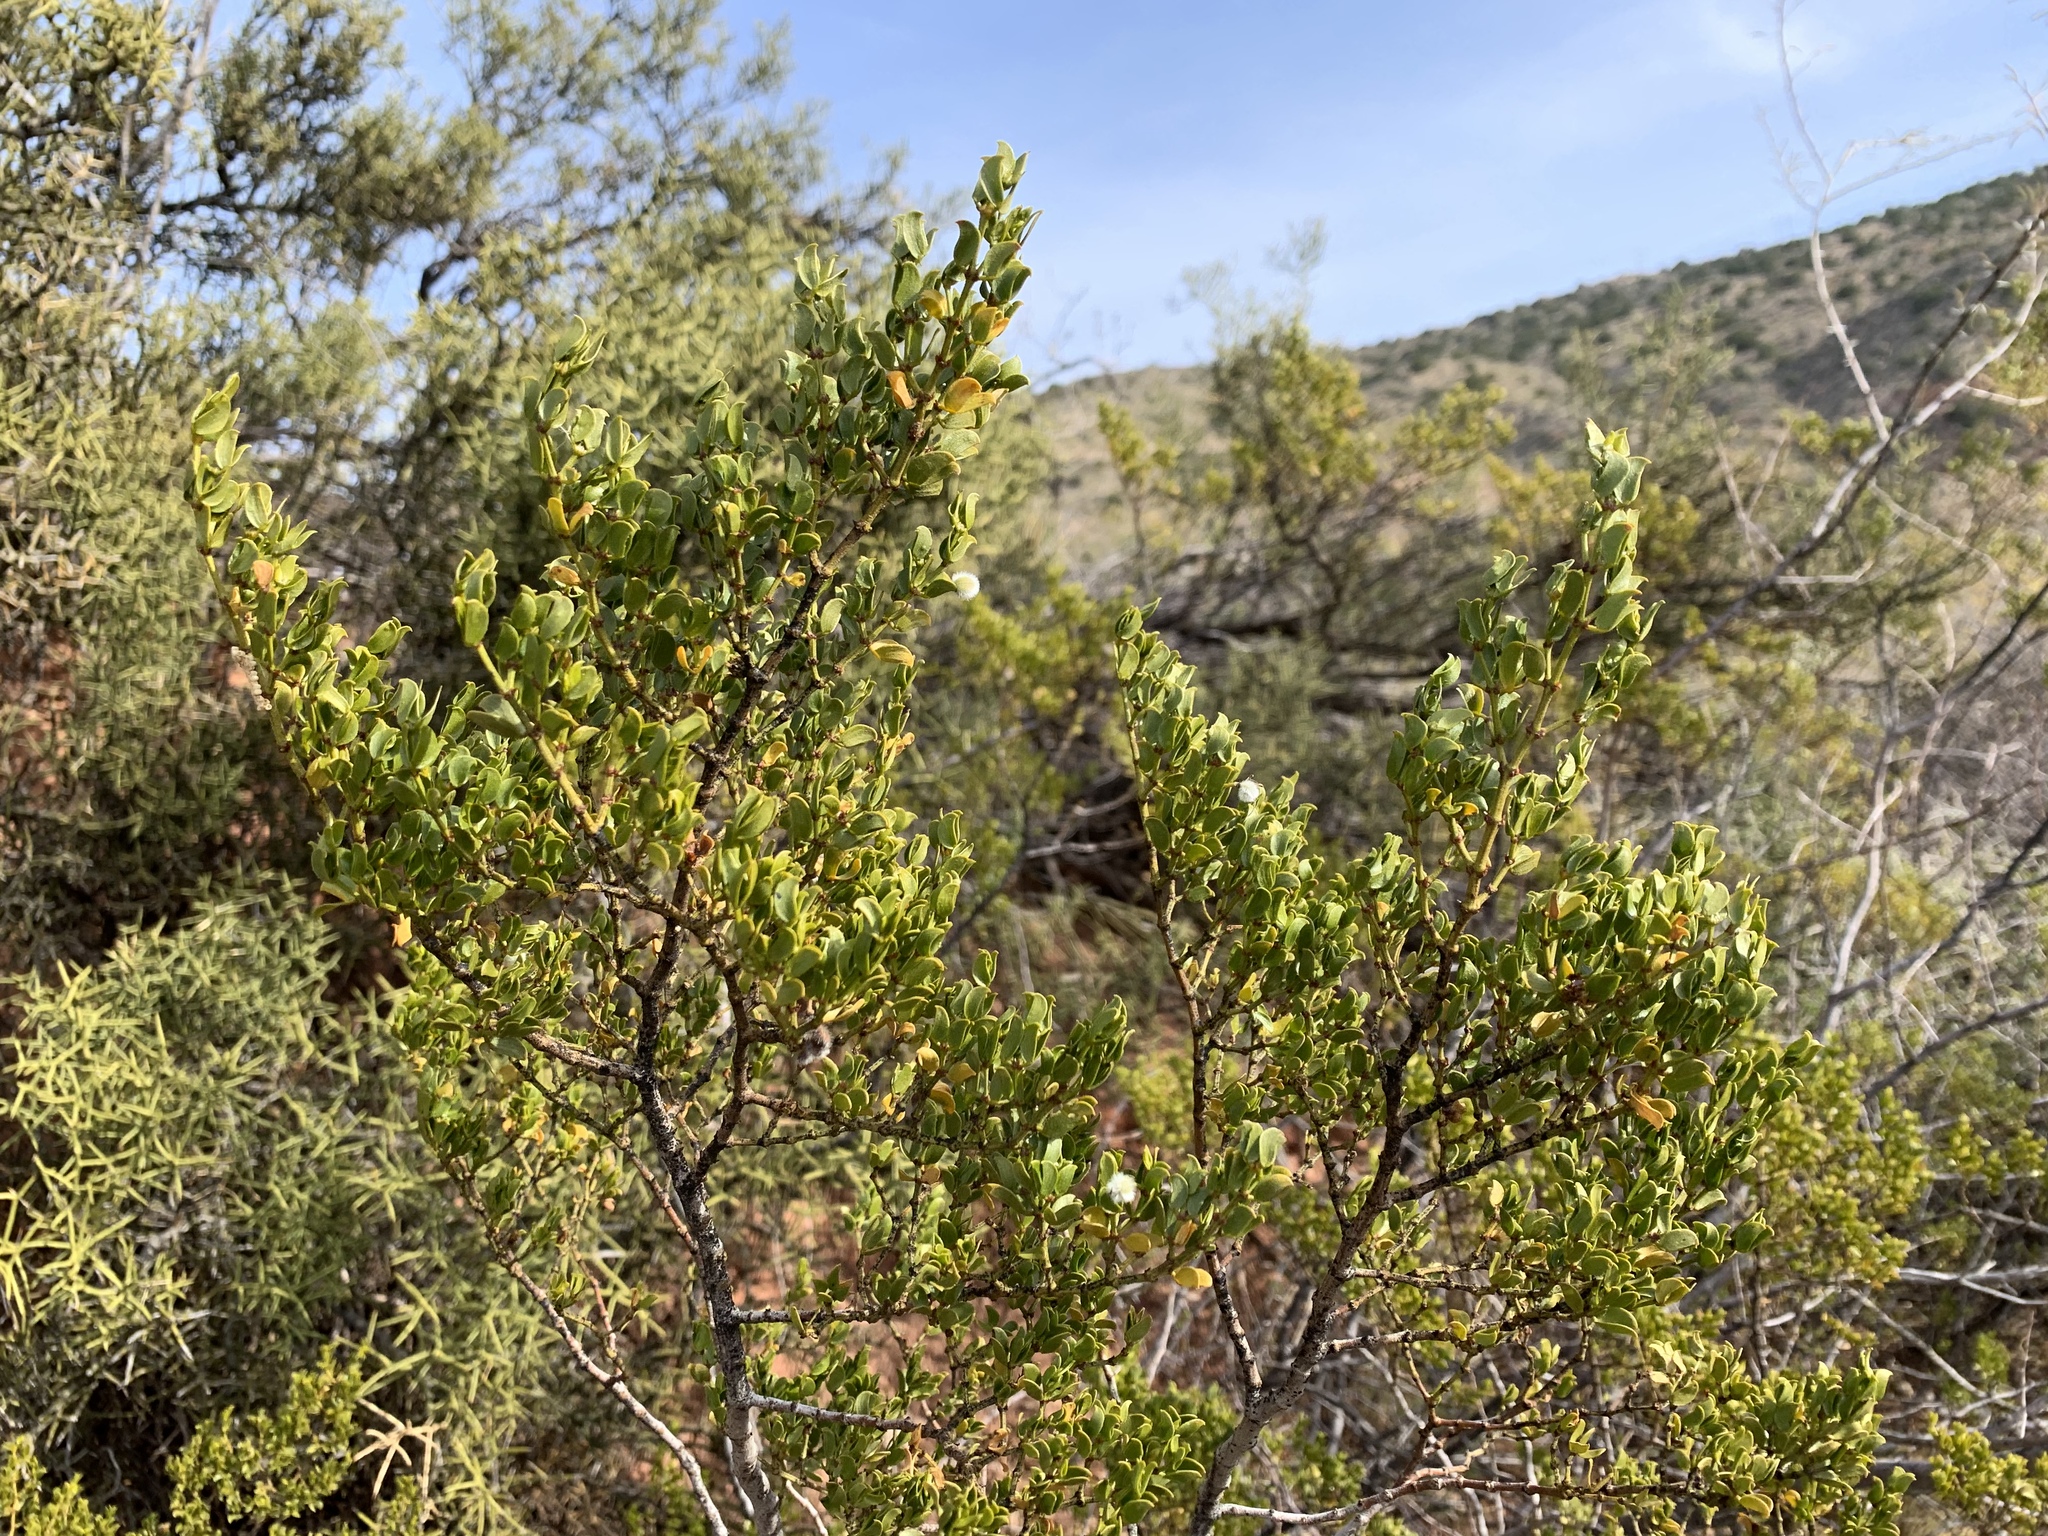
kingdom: Plantae
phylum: Tracheophyta
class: Magnoliopsida
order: Zygophyllales
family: Zygophyllaceae
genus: Larrea
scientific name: Larrea tridentata
